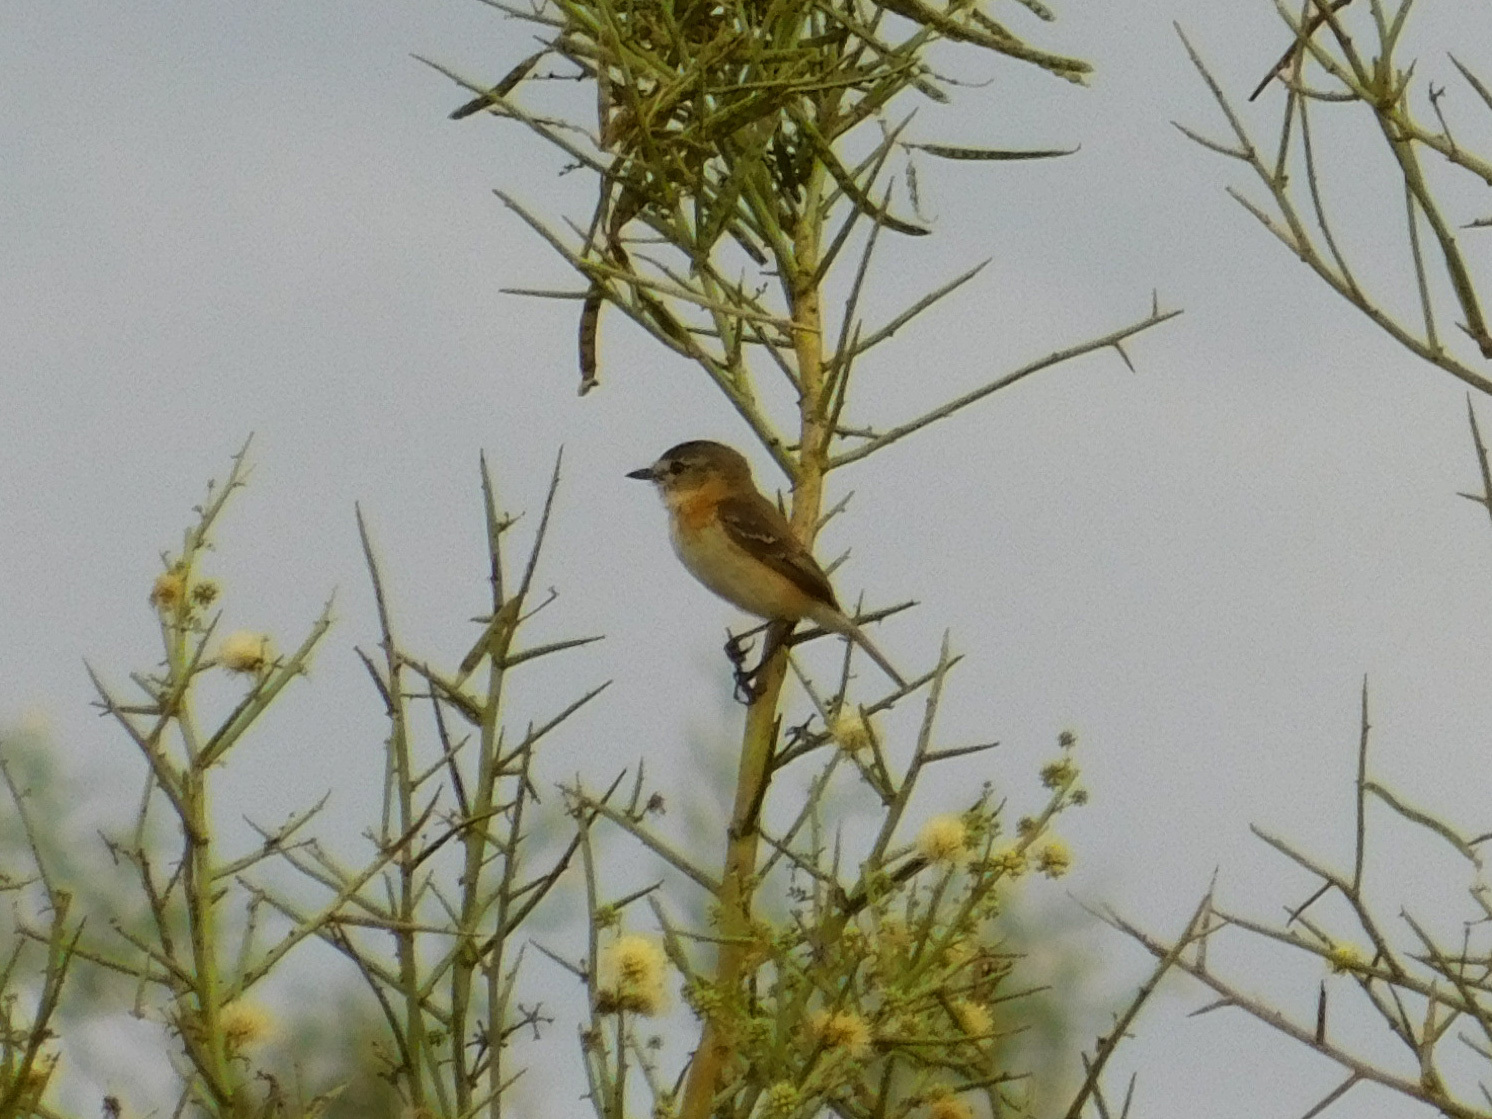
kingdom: Animalia
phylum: Chordata
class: Aves
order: Passeriformes
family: Tyrannidae
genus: Polystictus
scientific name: Polystictus pectoralis
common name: Bearded tachuri
